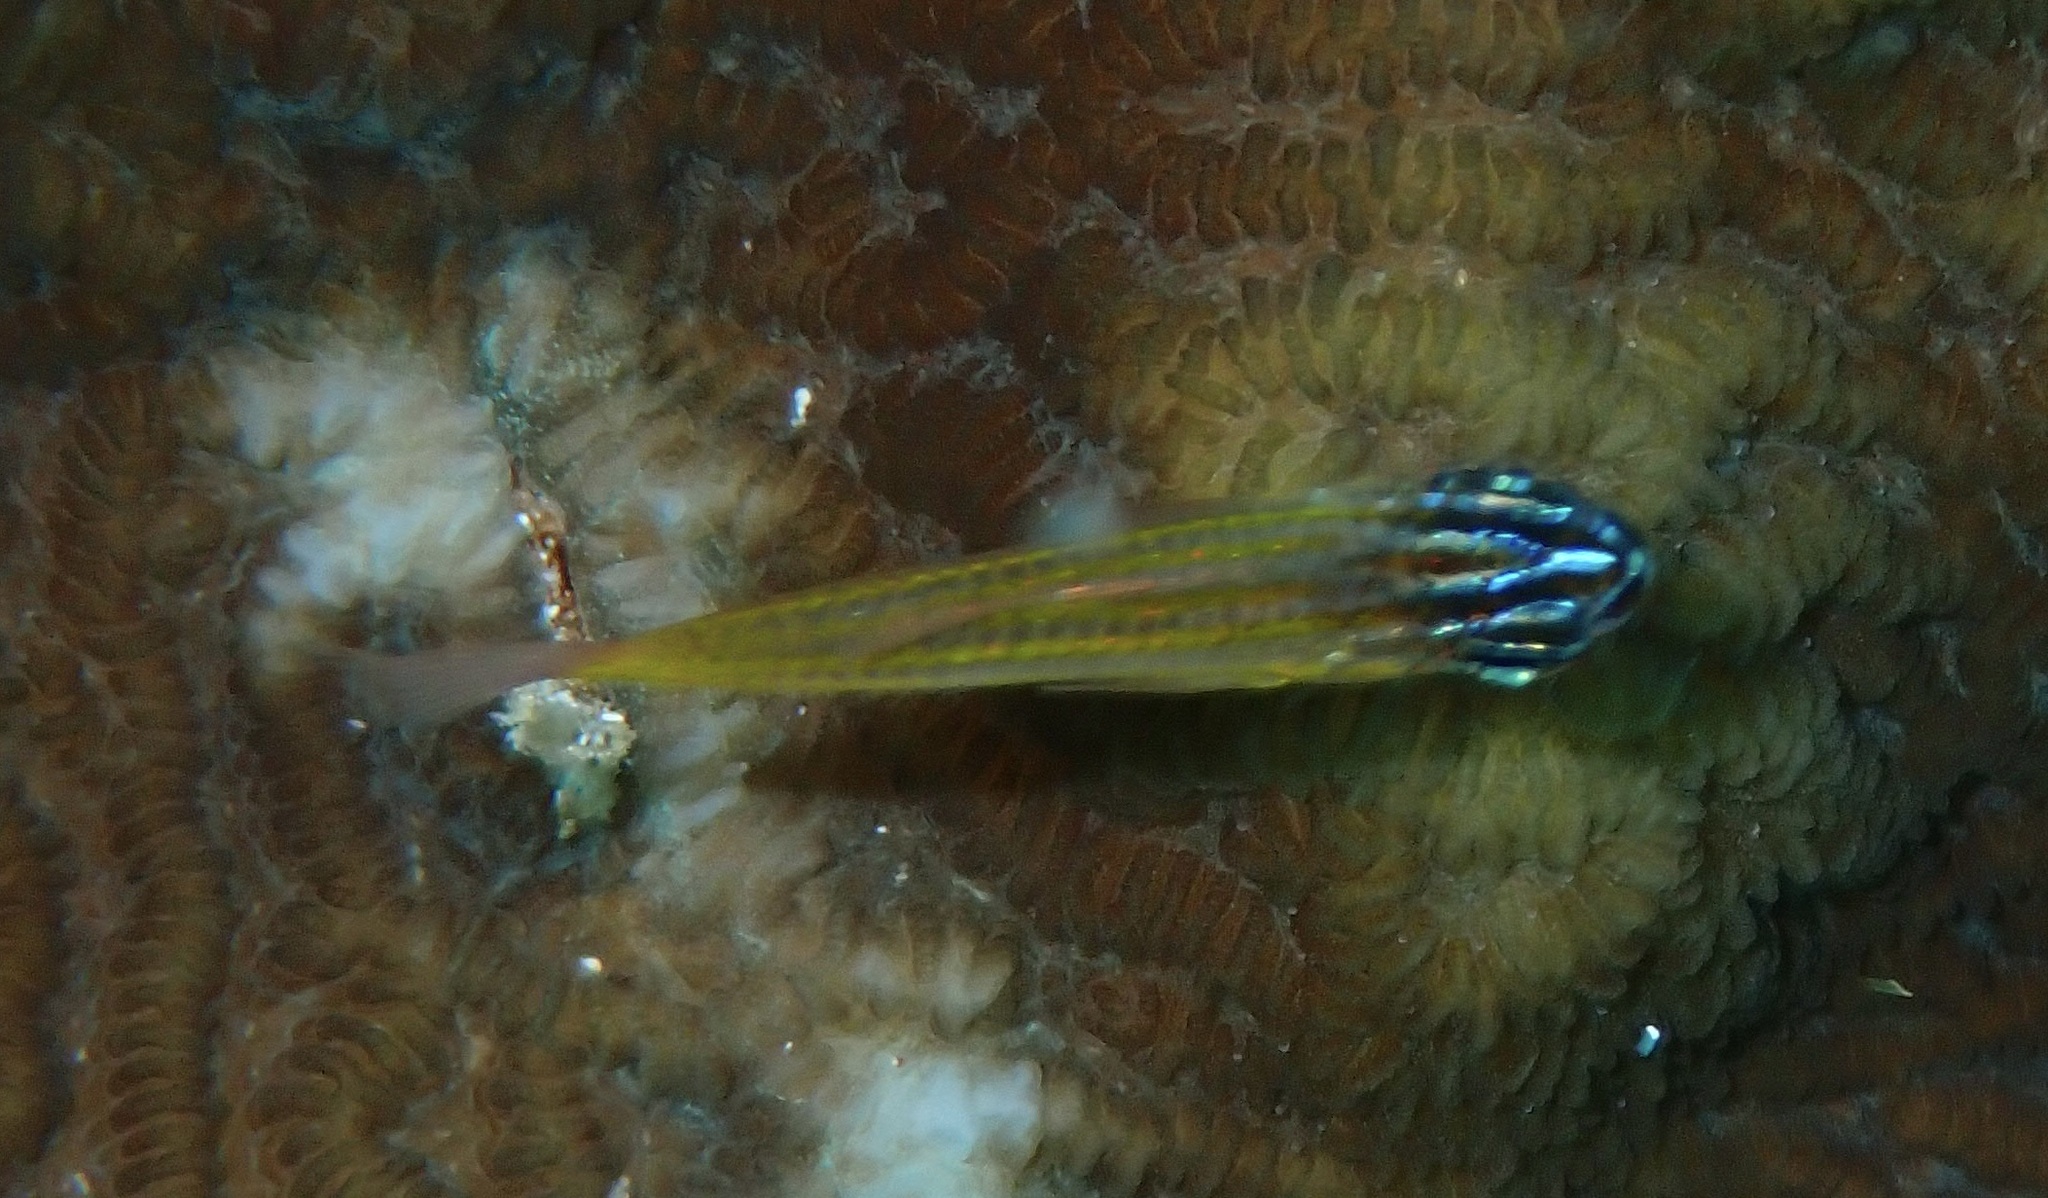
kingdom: Animalia
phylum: Chordata
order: Perciformes
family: Apogonidae
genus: Ostorhinchus
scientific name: Ostorhinchus wassinki
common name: Kupang cardinalfish
